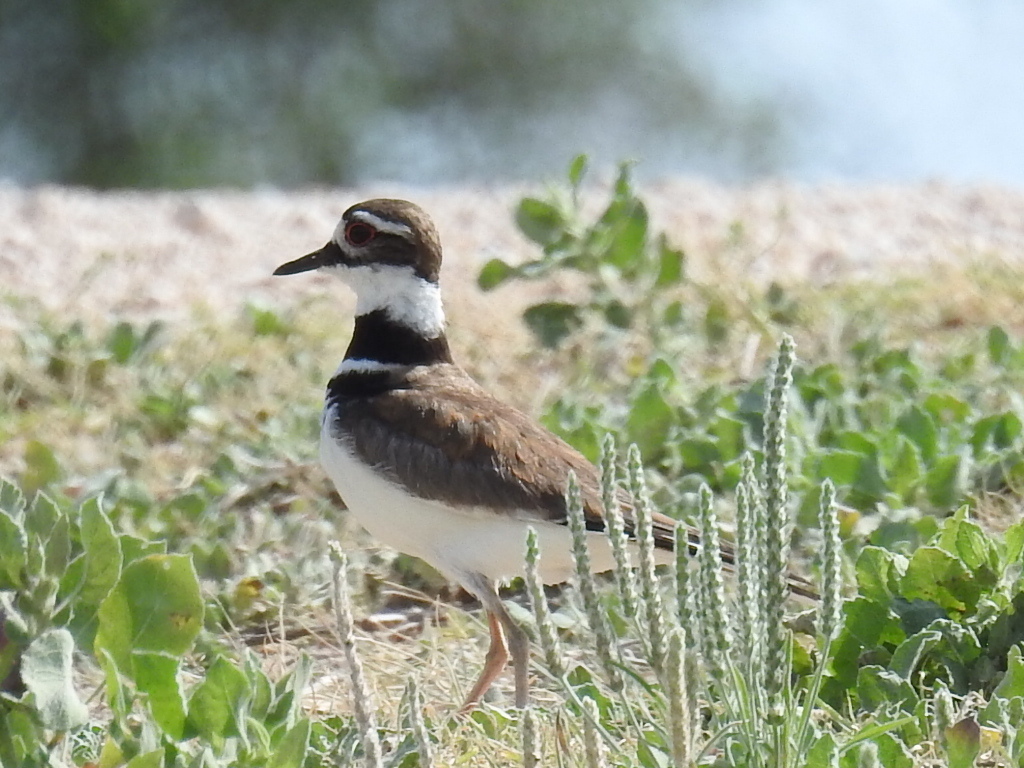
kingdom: Animalia
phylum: Chordata
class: Aves
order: Charadriiformes
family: Charadriidae
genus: Charadrius
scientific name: Charadrius vociferus
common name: Killdeer
